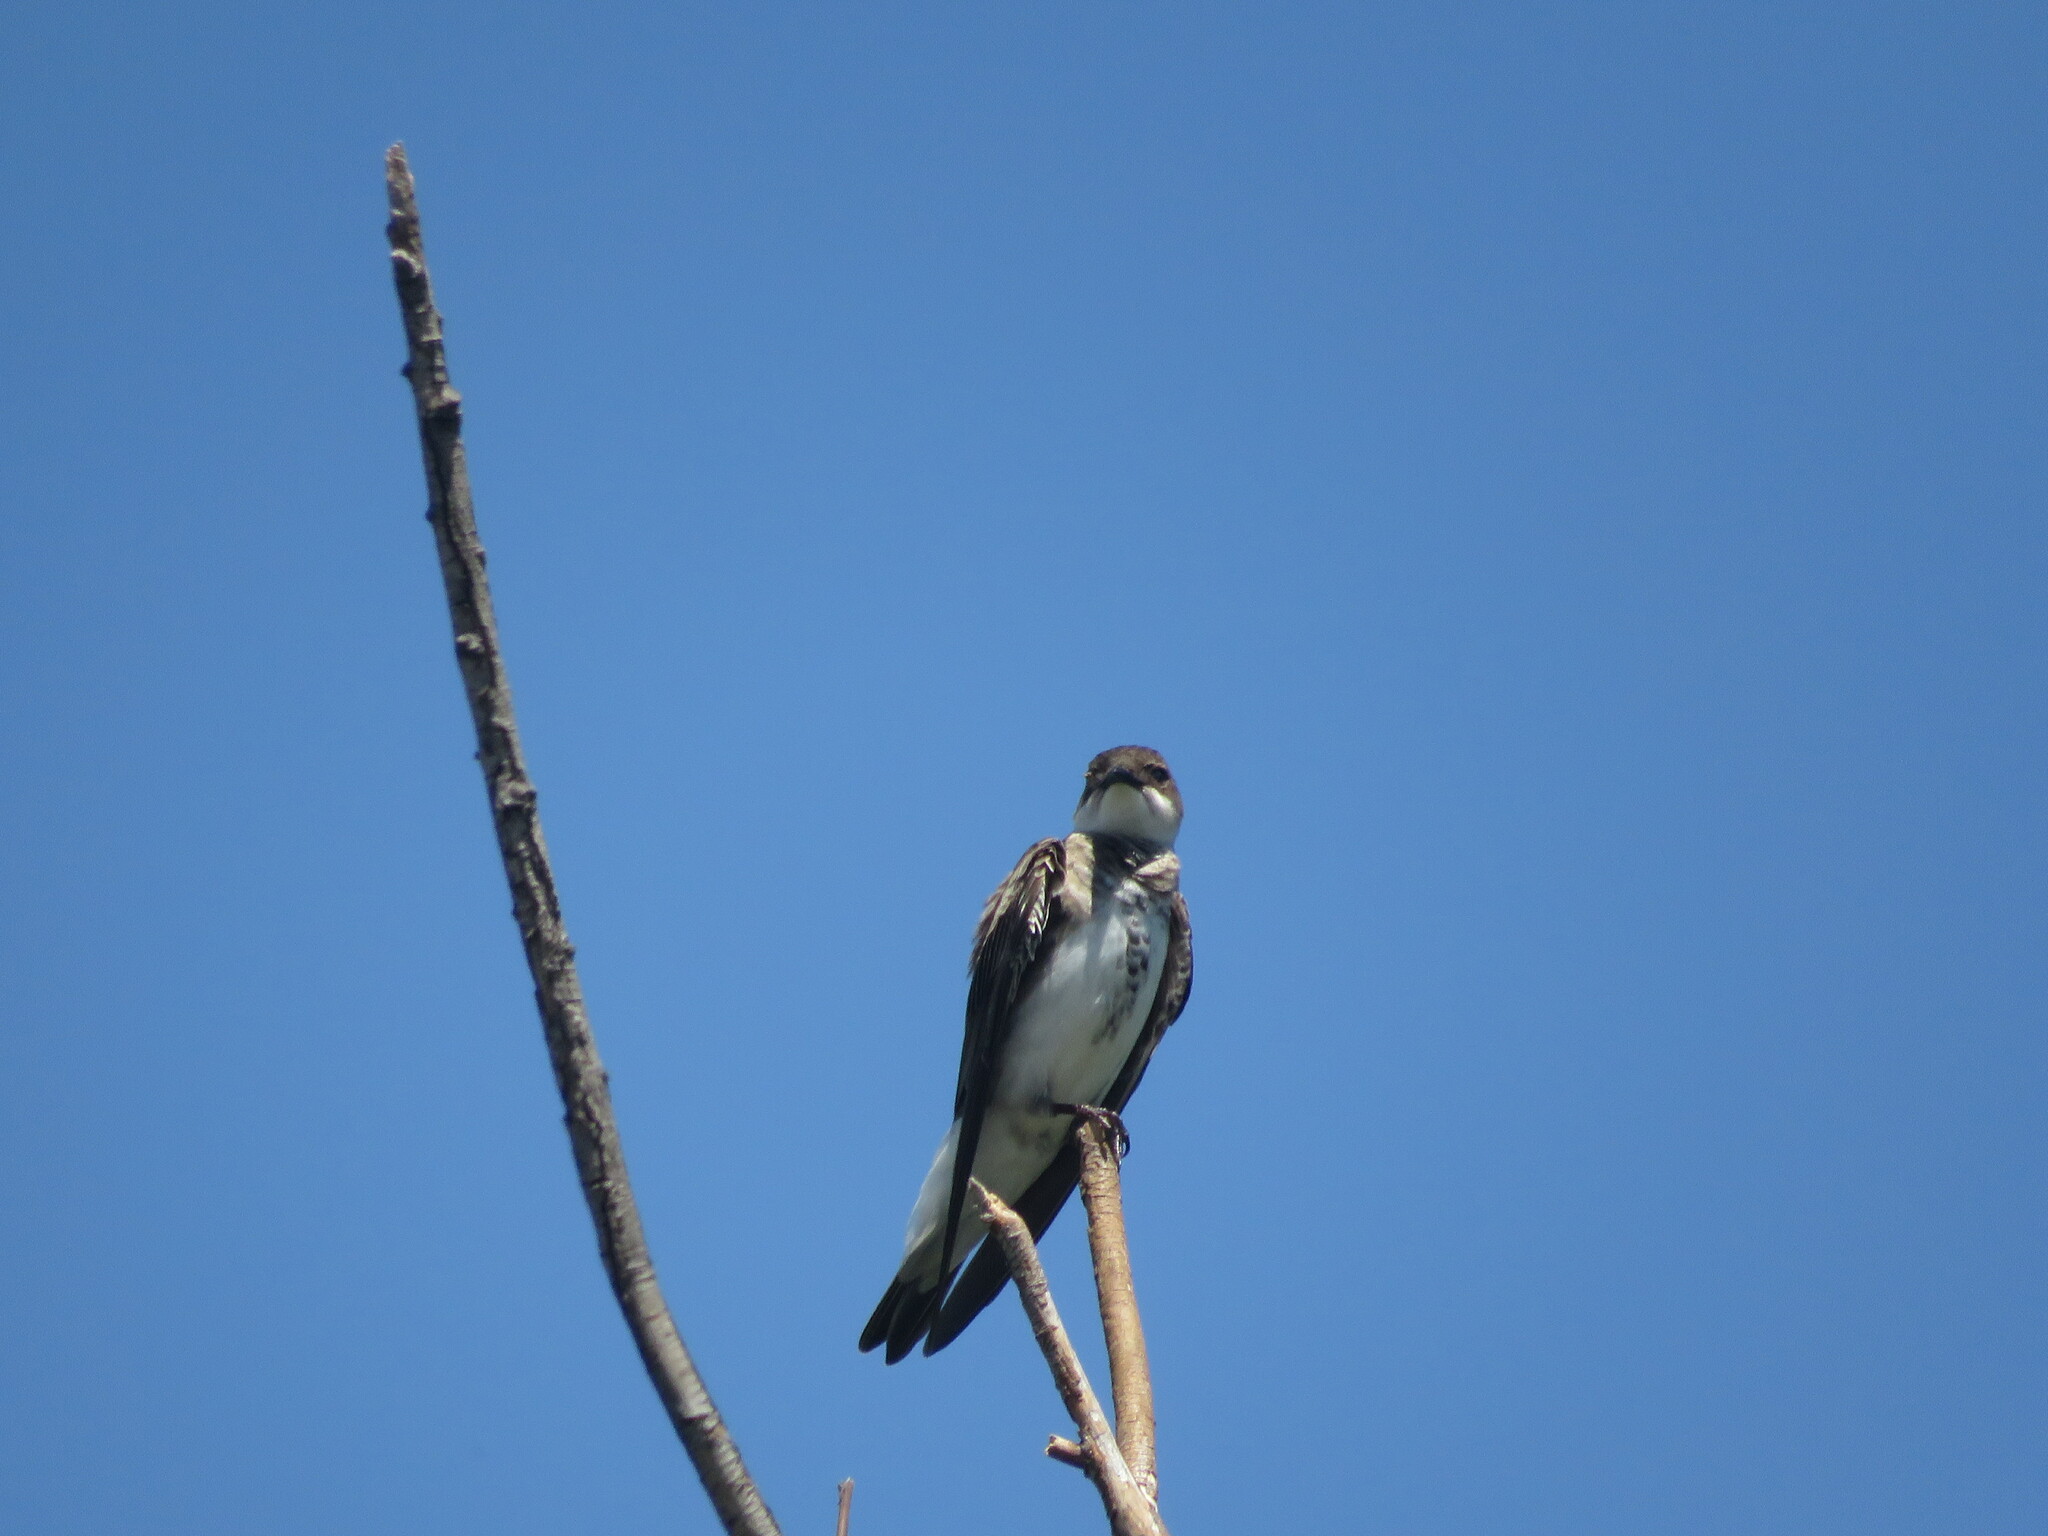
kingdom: Animalia
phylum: Chordata
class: Aves
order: Passeriformes
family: Hirundinidae
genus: Progne
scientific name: Progne tapera
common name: Brown-chested martin
